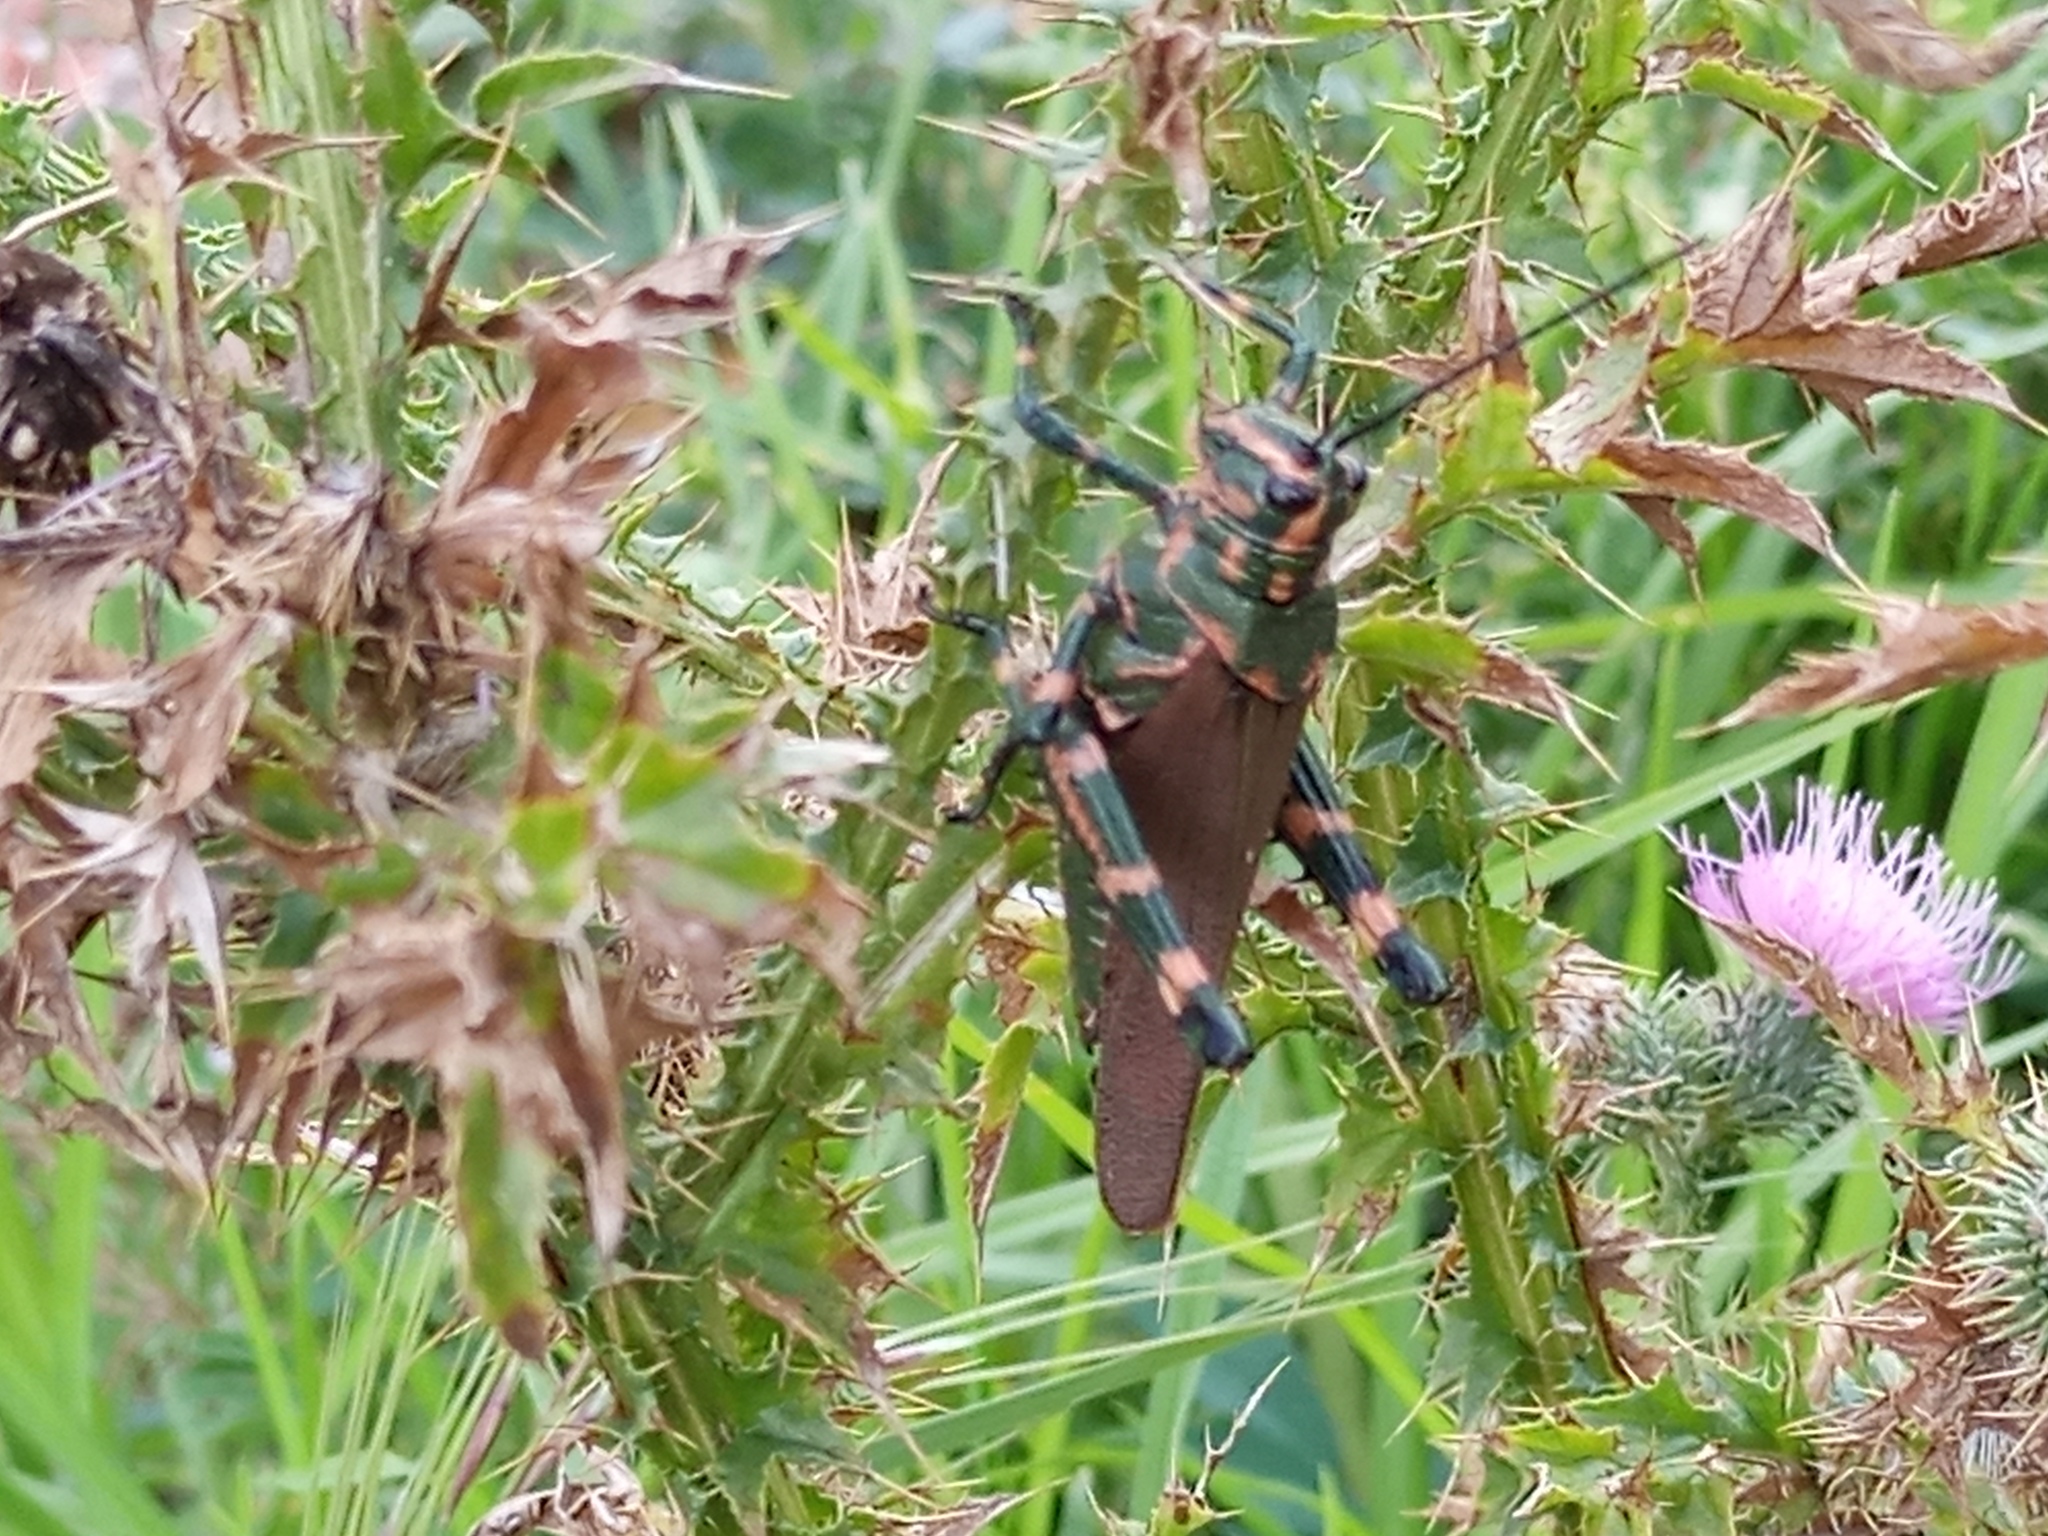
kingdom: Animalia
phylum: Arthropoda
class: Insecta
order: Orthoptera
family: Romaleidae
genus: Chromacris
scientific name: Chromacris speciosa
